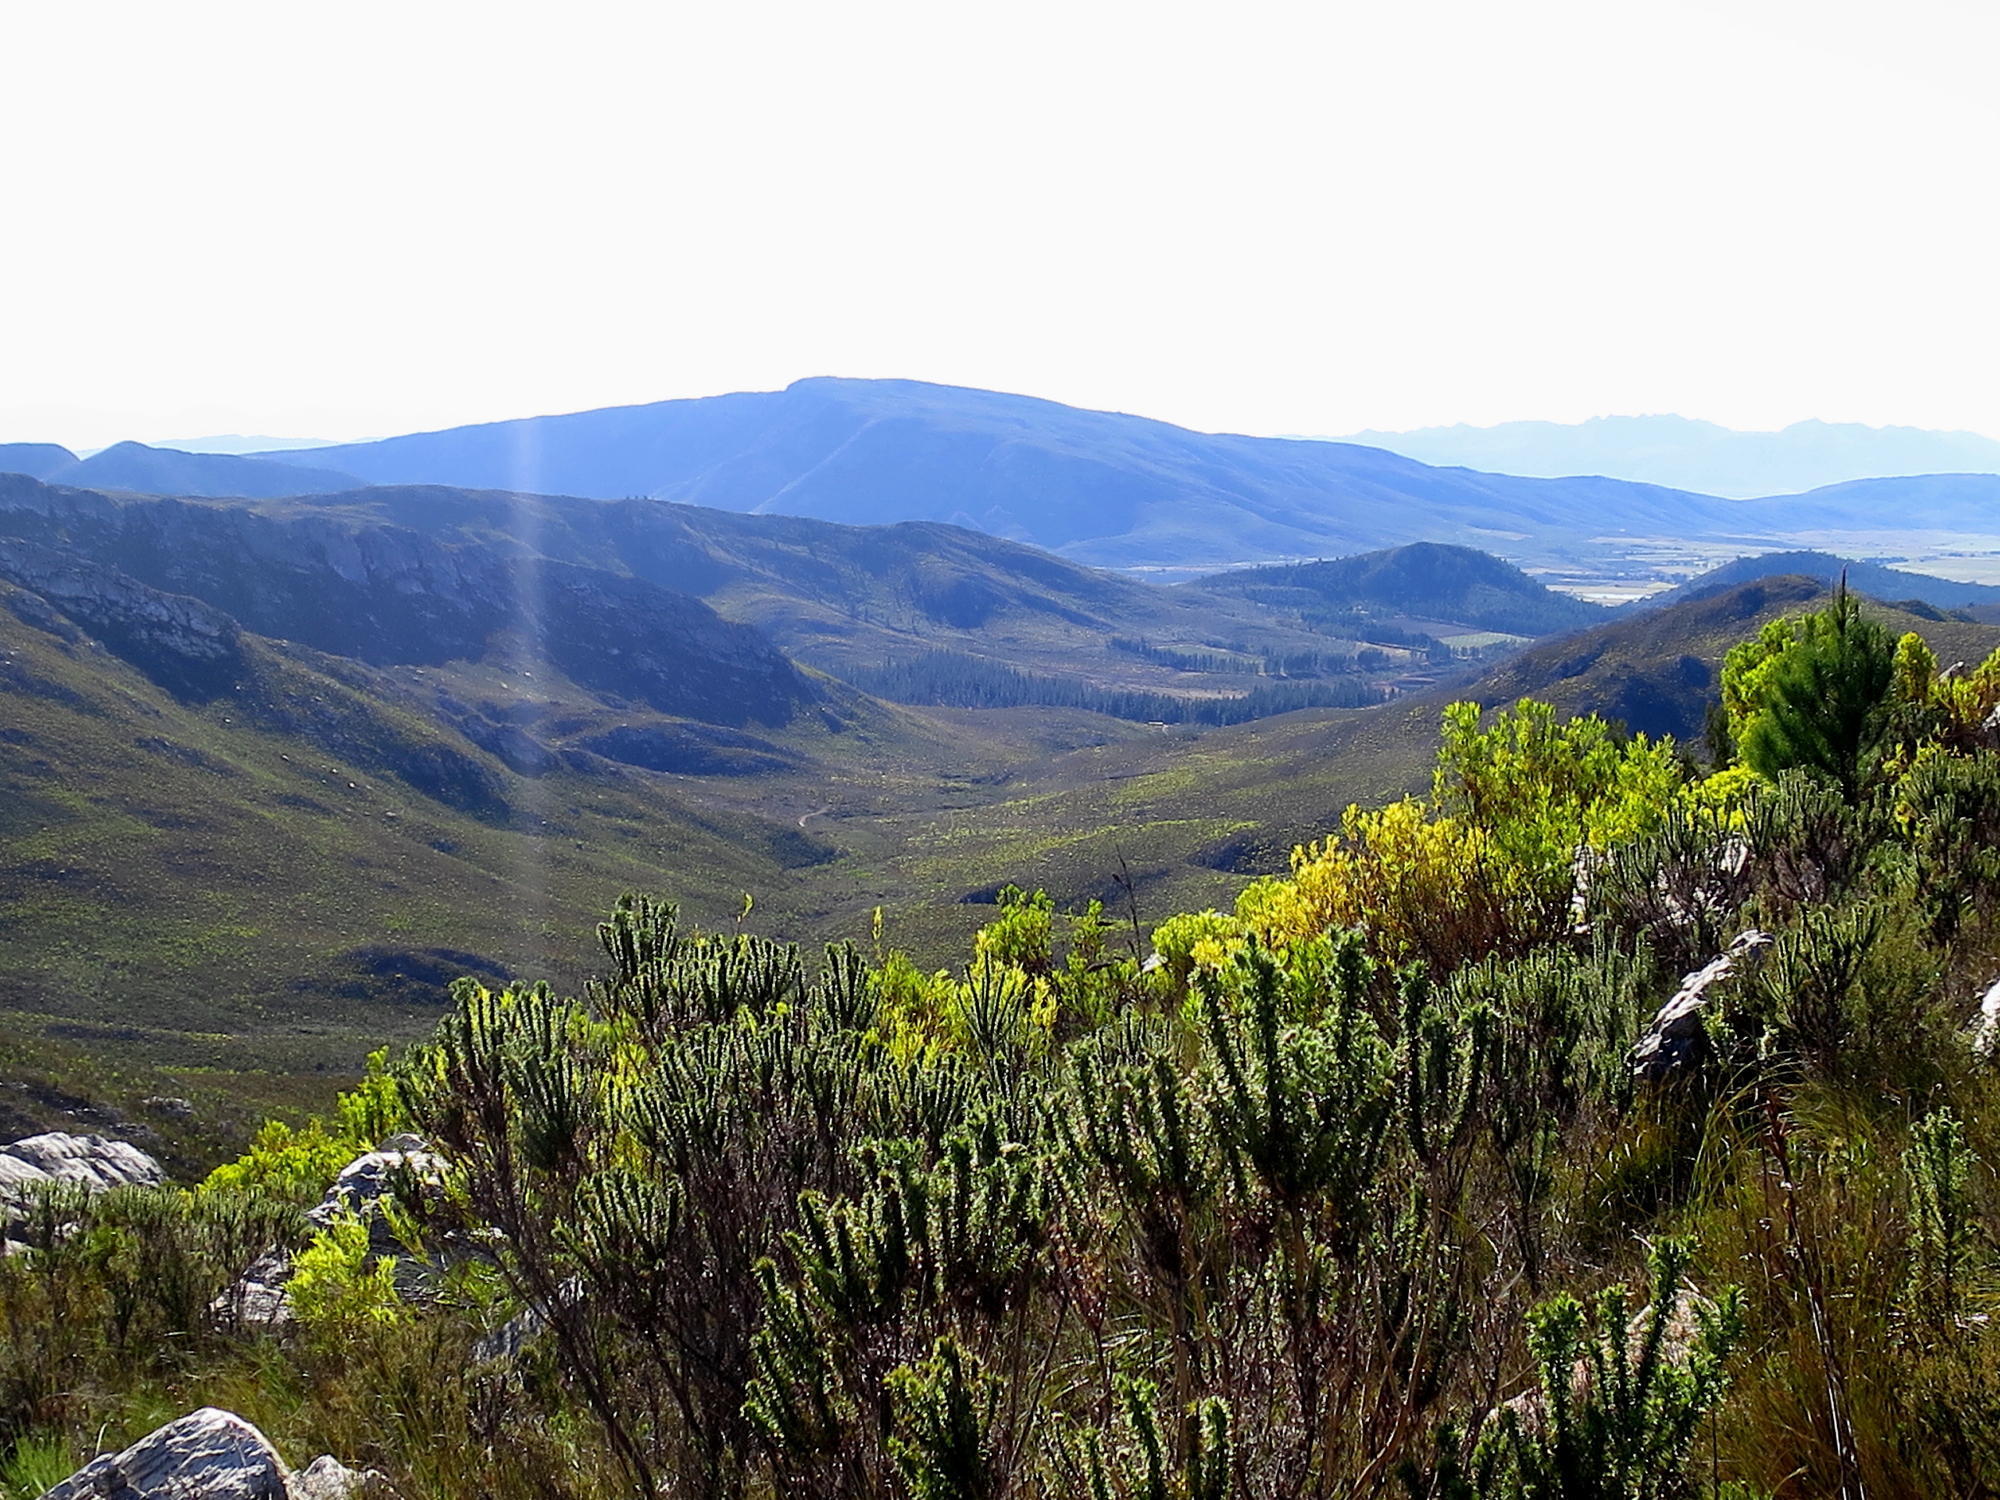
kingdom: Plantae
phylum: Tracheophyta
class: Magnoliopsida
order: Asterales
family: Asteraceae
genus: Metalasia
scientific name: Metalasia acuta
